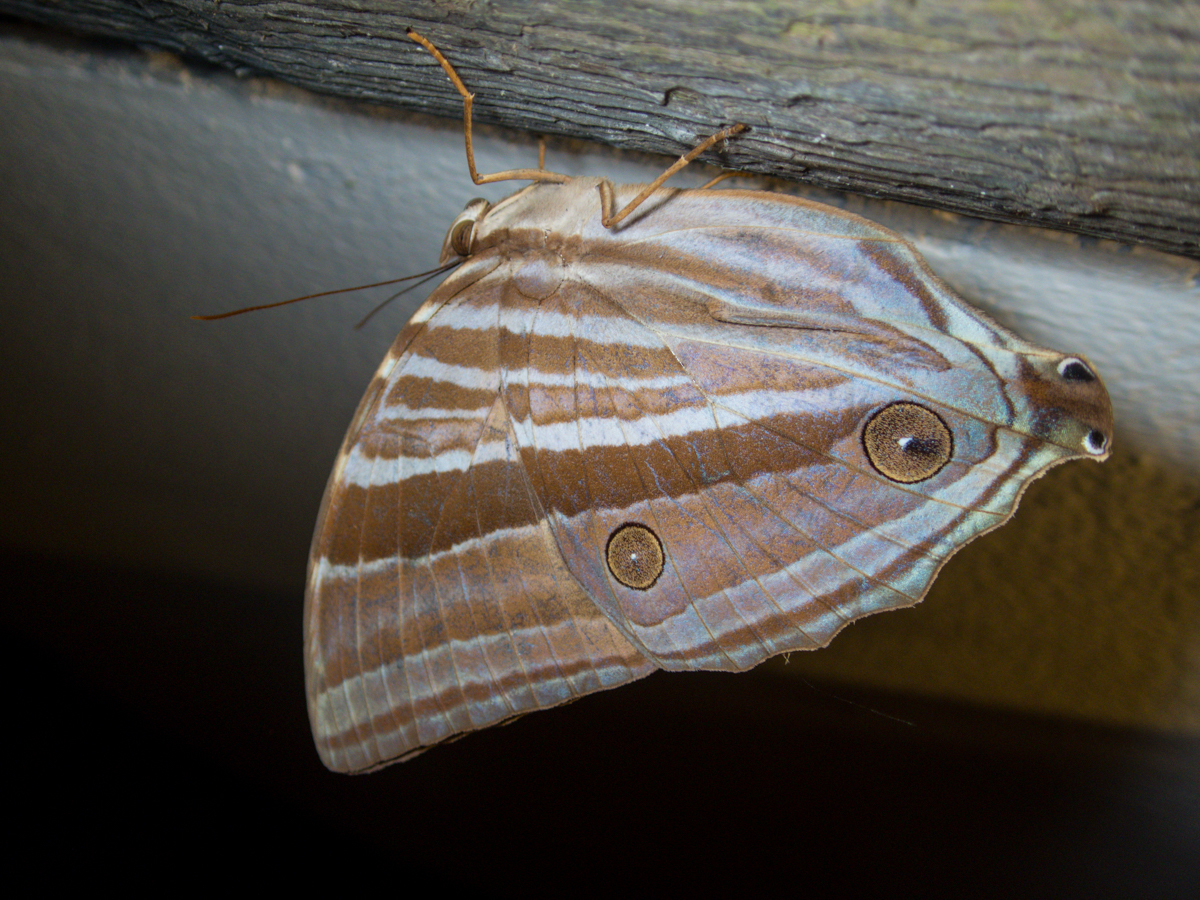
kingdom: Animalia
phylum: Arthropoda
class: Insecta
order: Lepidoptera
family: Nymphalidae
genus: Amathusia
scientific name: Amathusia phidippus
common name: Palm king
